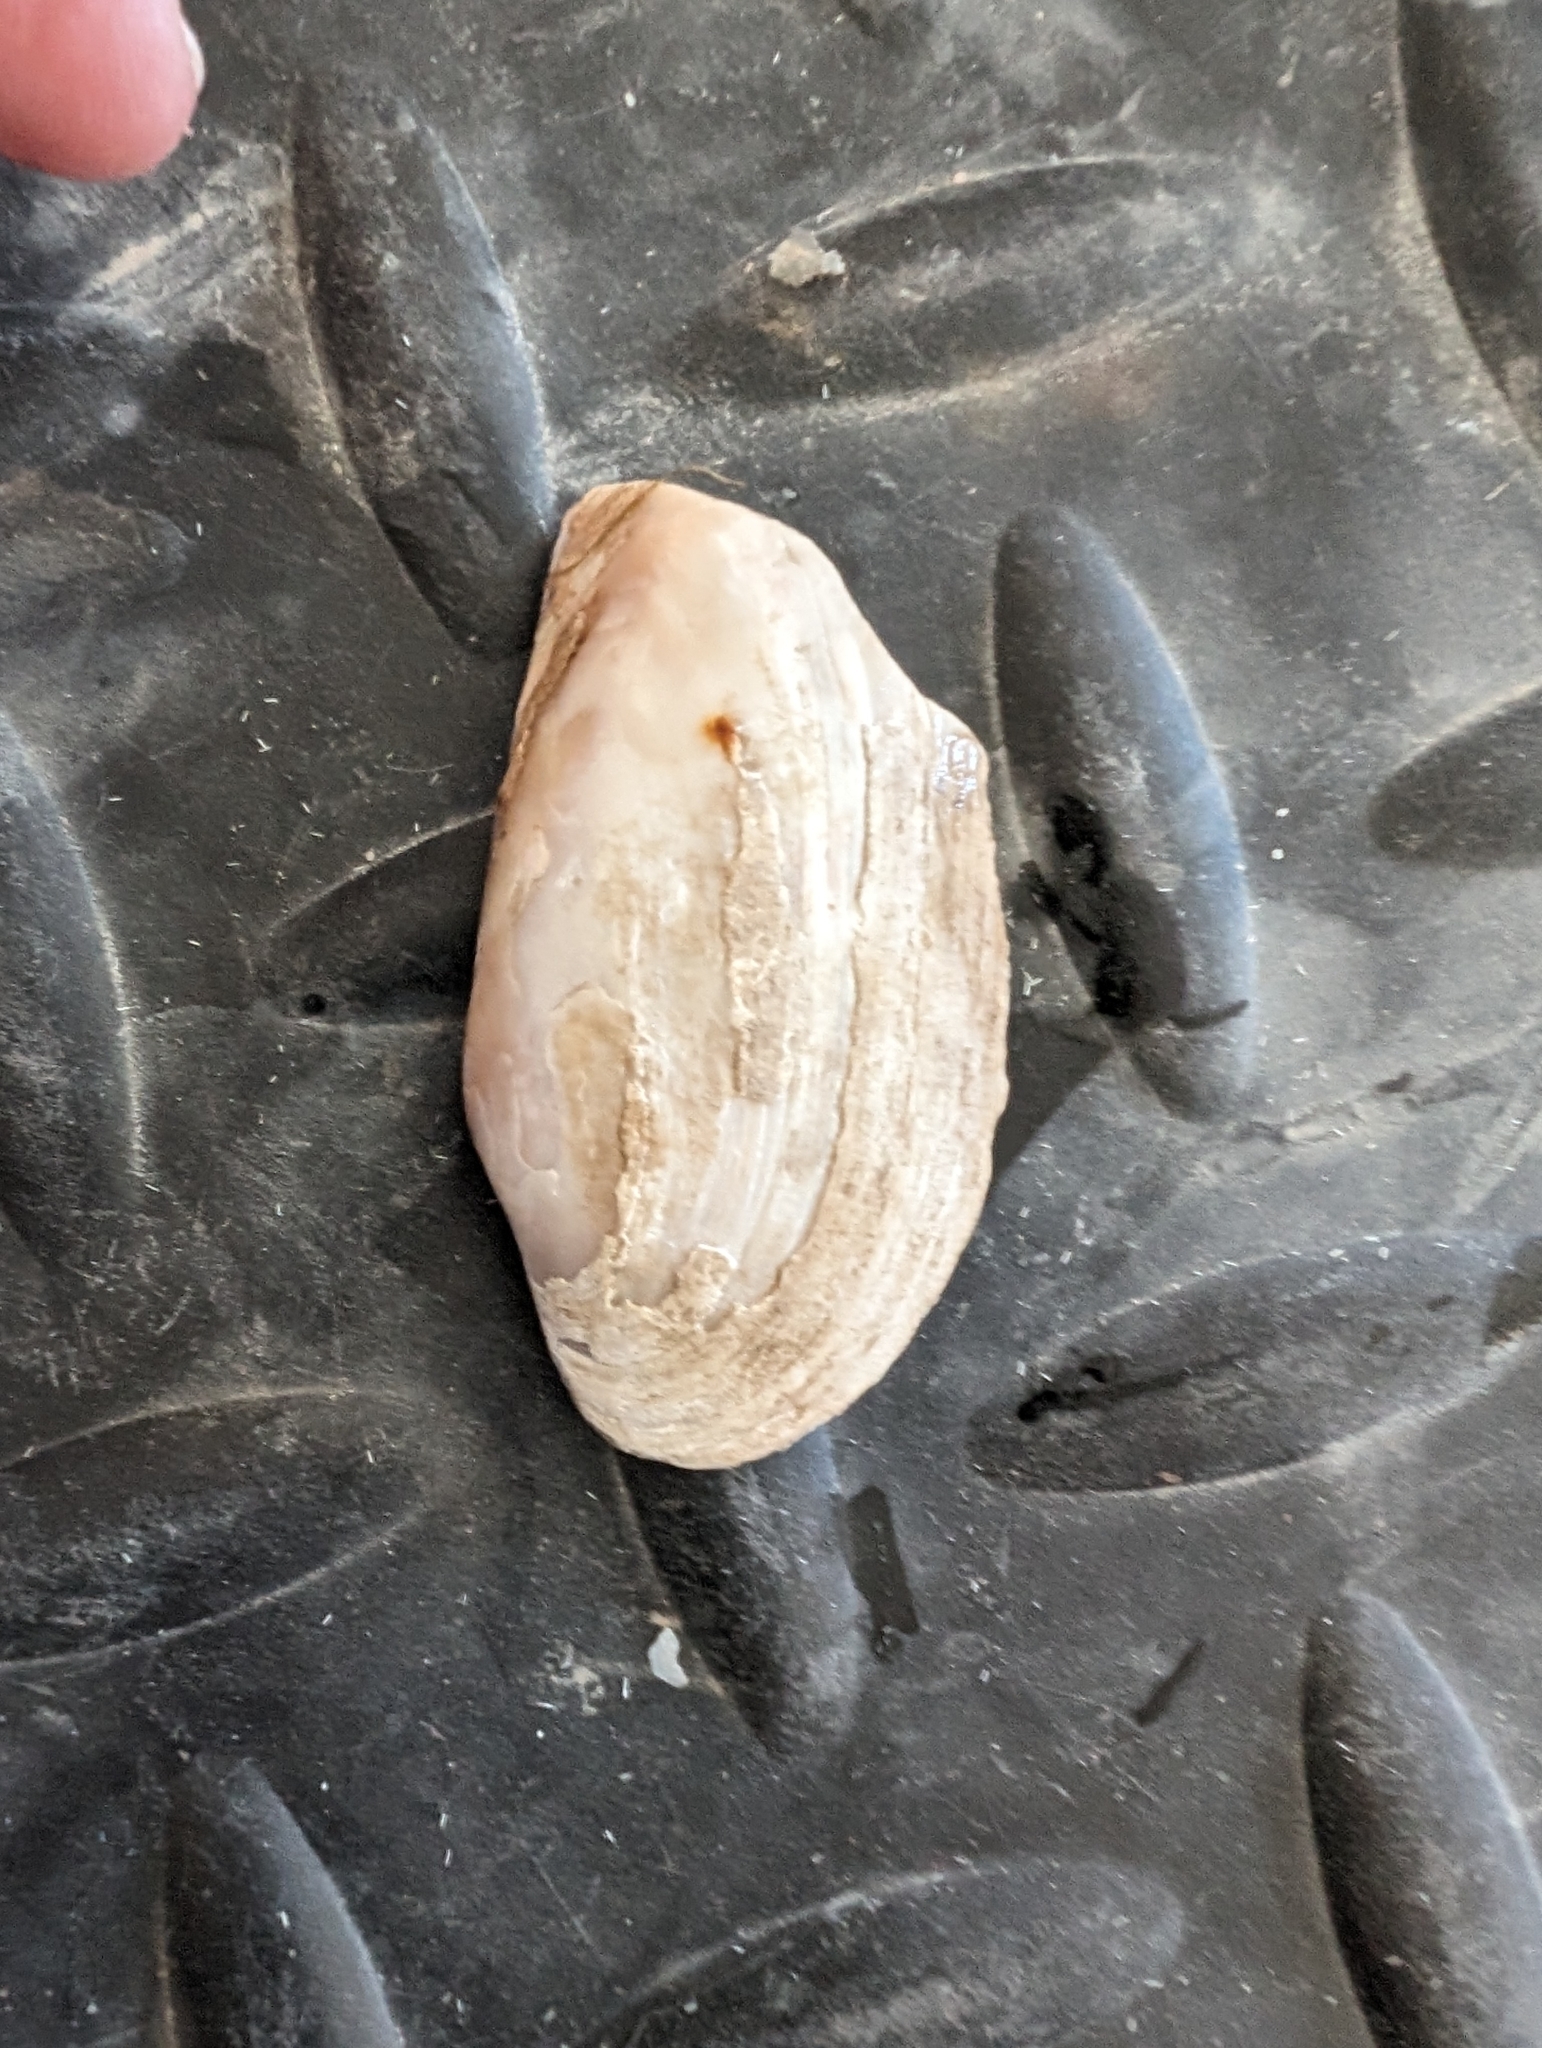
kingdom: Animalia
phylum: Mollusca
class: Bivalvia
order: Unionida
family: Unionidae
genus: Ligumia
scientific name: Ligumia recta
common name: Black sandshell
